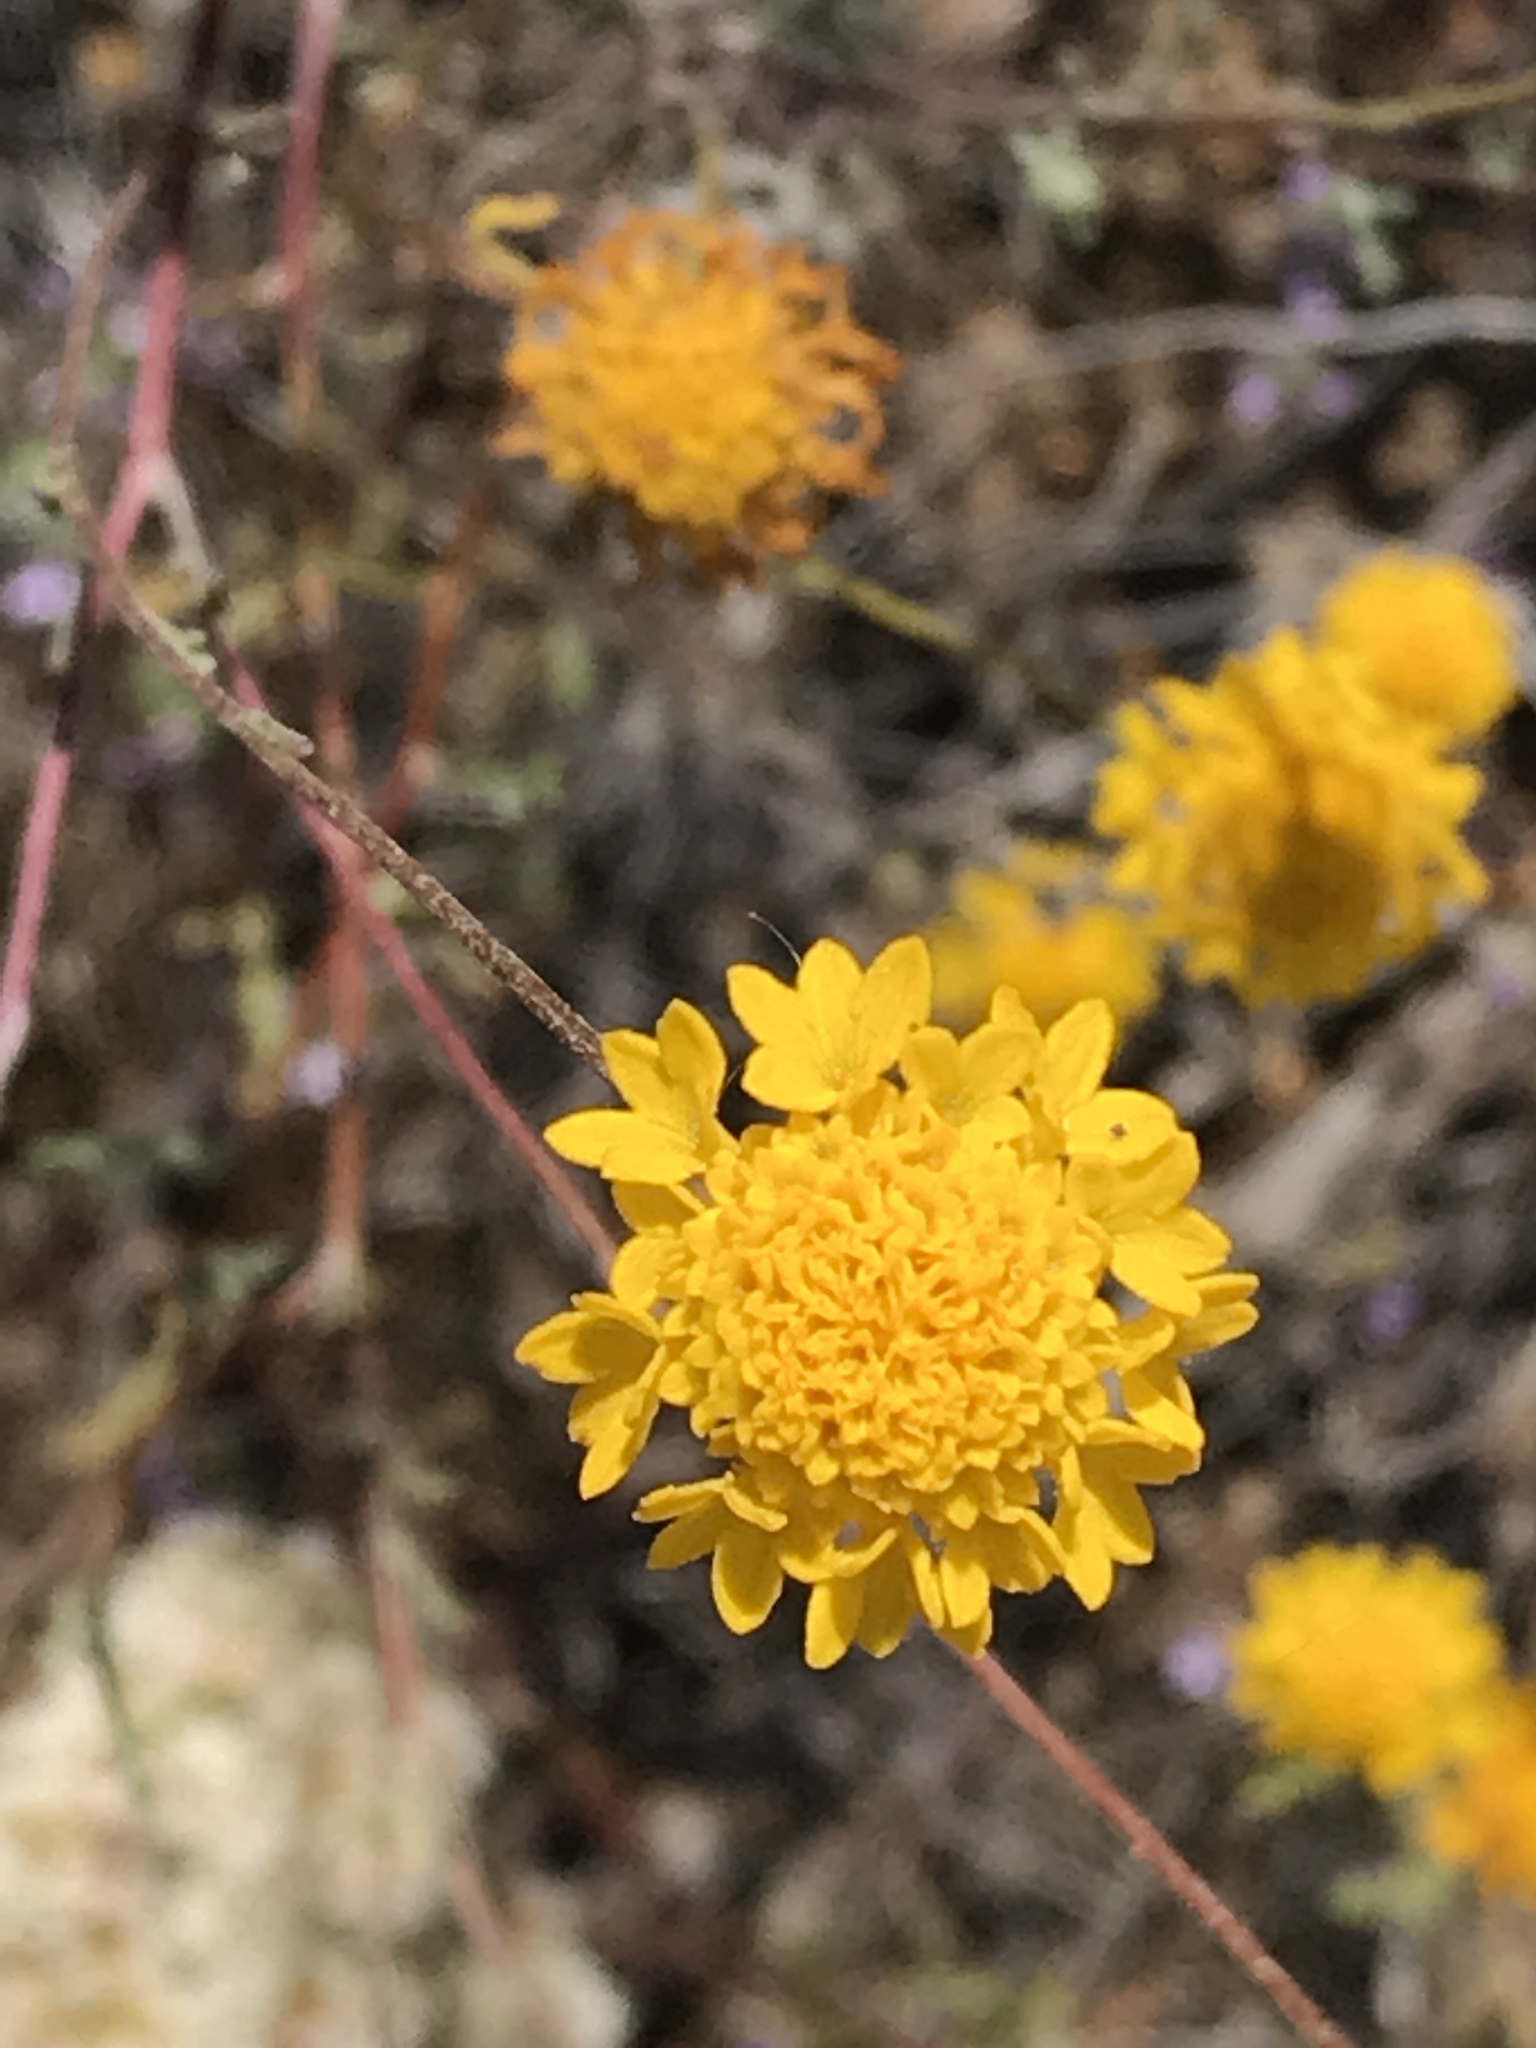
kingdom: Plantae
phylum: Tracheophyta
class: Magnoliopsida
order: Asterales
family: Asteraceae
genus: Chaenactis
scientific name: Chaenactis glabriuscula
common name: Yellow pincushion
